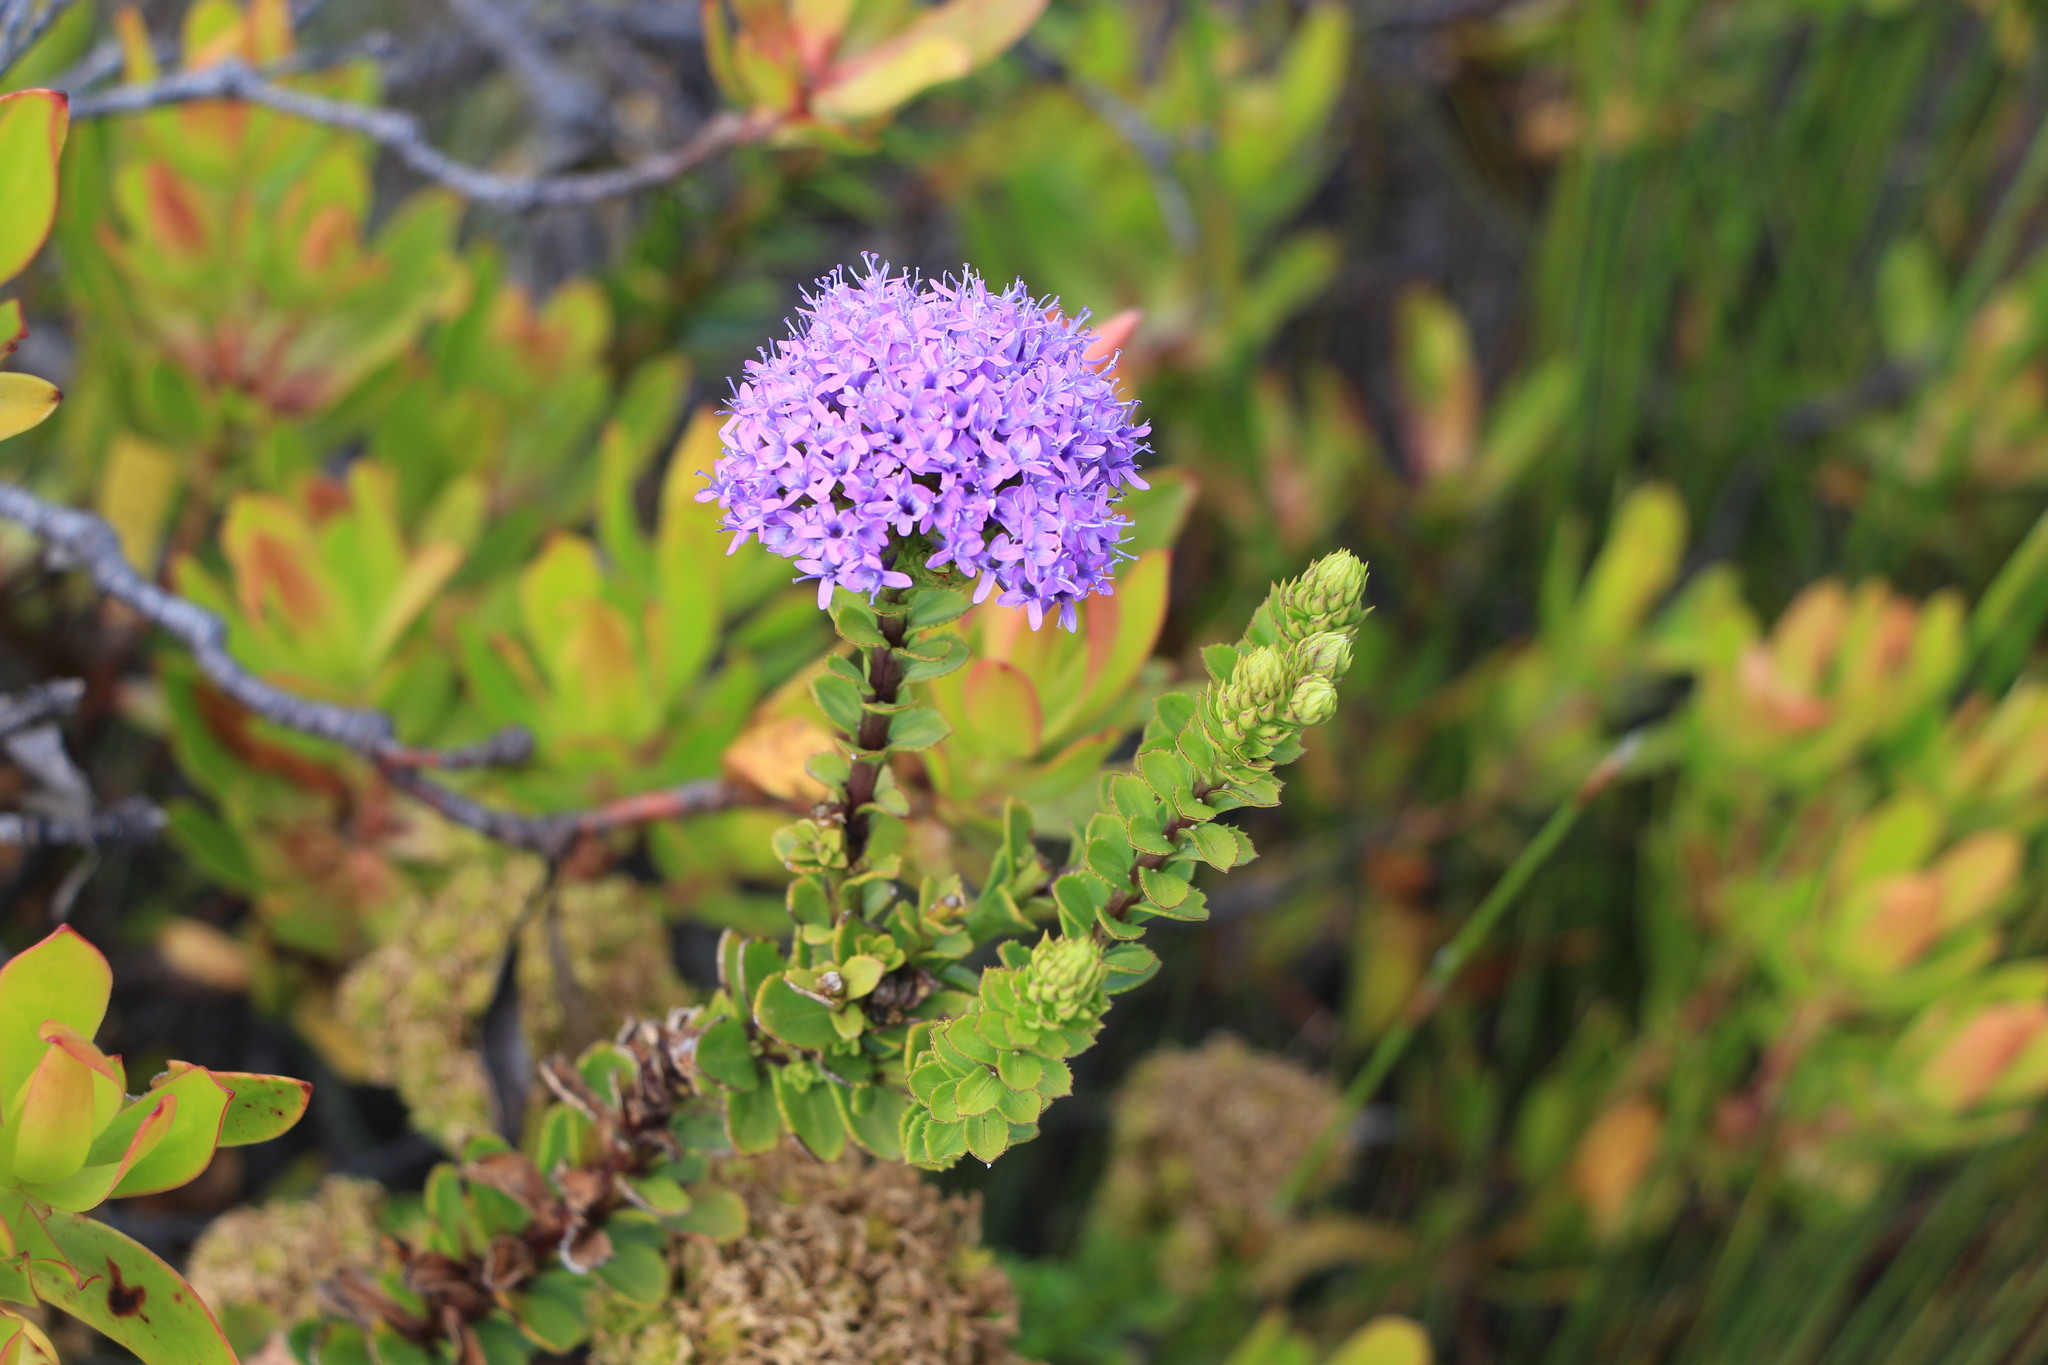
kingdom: Plantae
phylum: Tracheophyta
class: Magnoliopsida
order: Lamiales
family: Scrophulariaceae
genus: Pseudoselago
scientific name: Pseudoselago serrata
